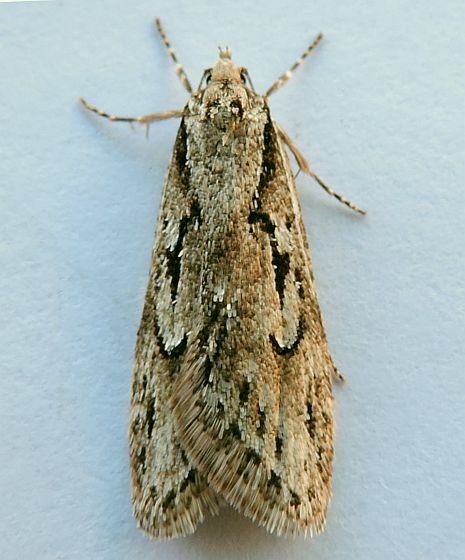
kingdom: Animalia
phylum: Arthropoda
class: Insecta
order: Lepidoptera
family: Depressariidae
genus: Semioscopis
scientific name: Semioscopis aurorella
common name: Aurora flatbody moth
